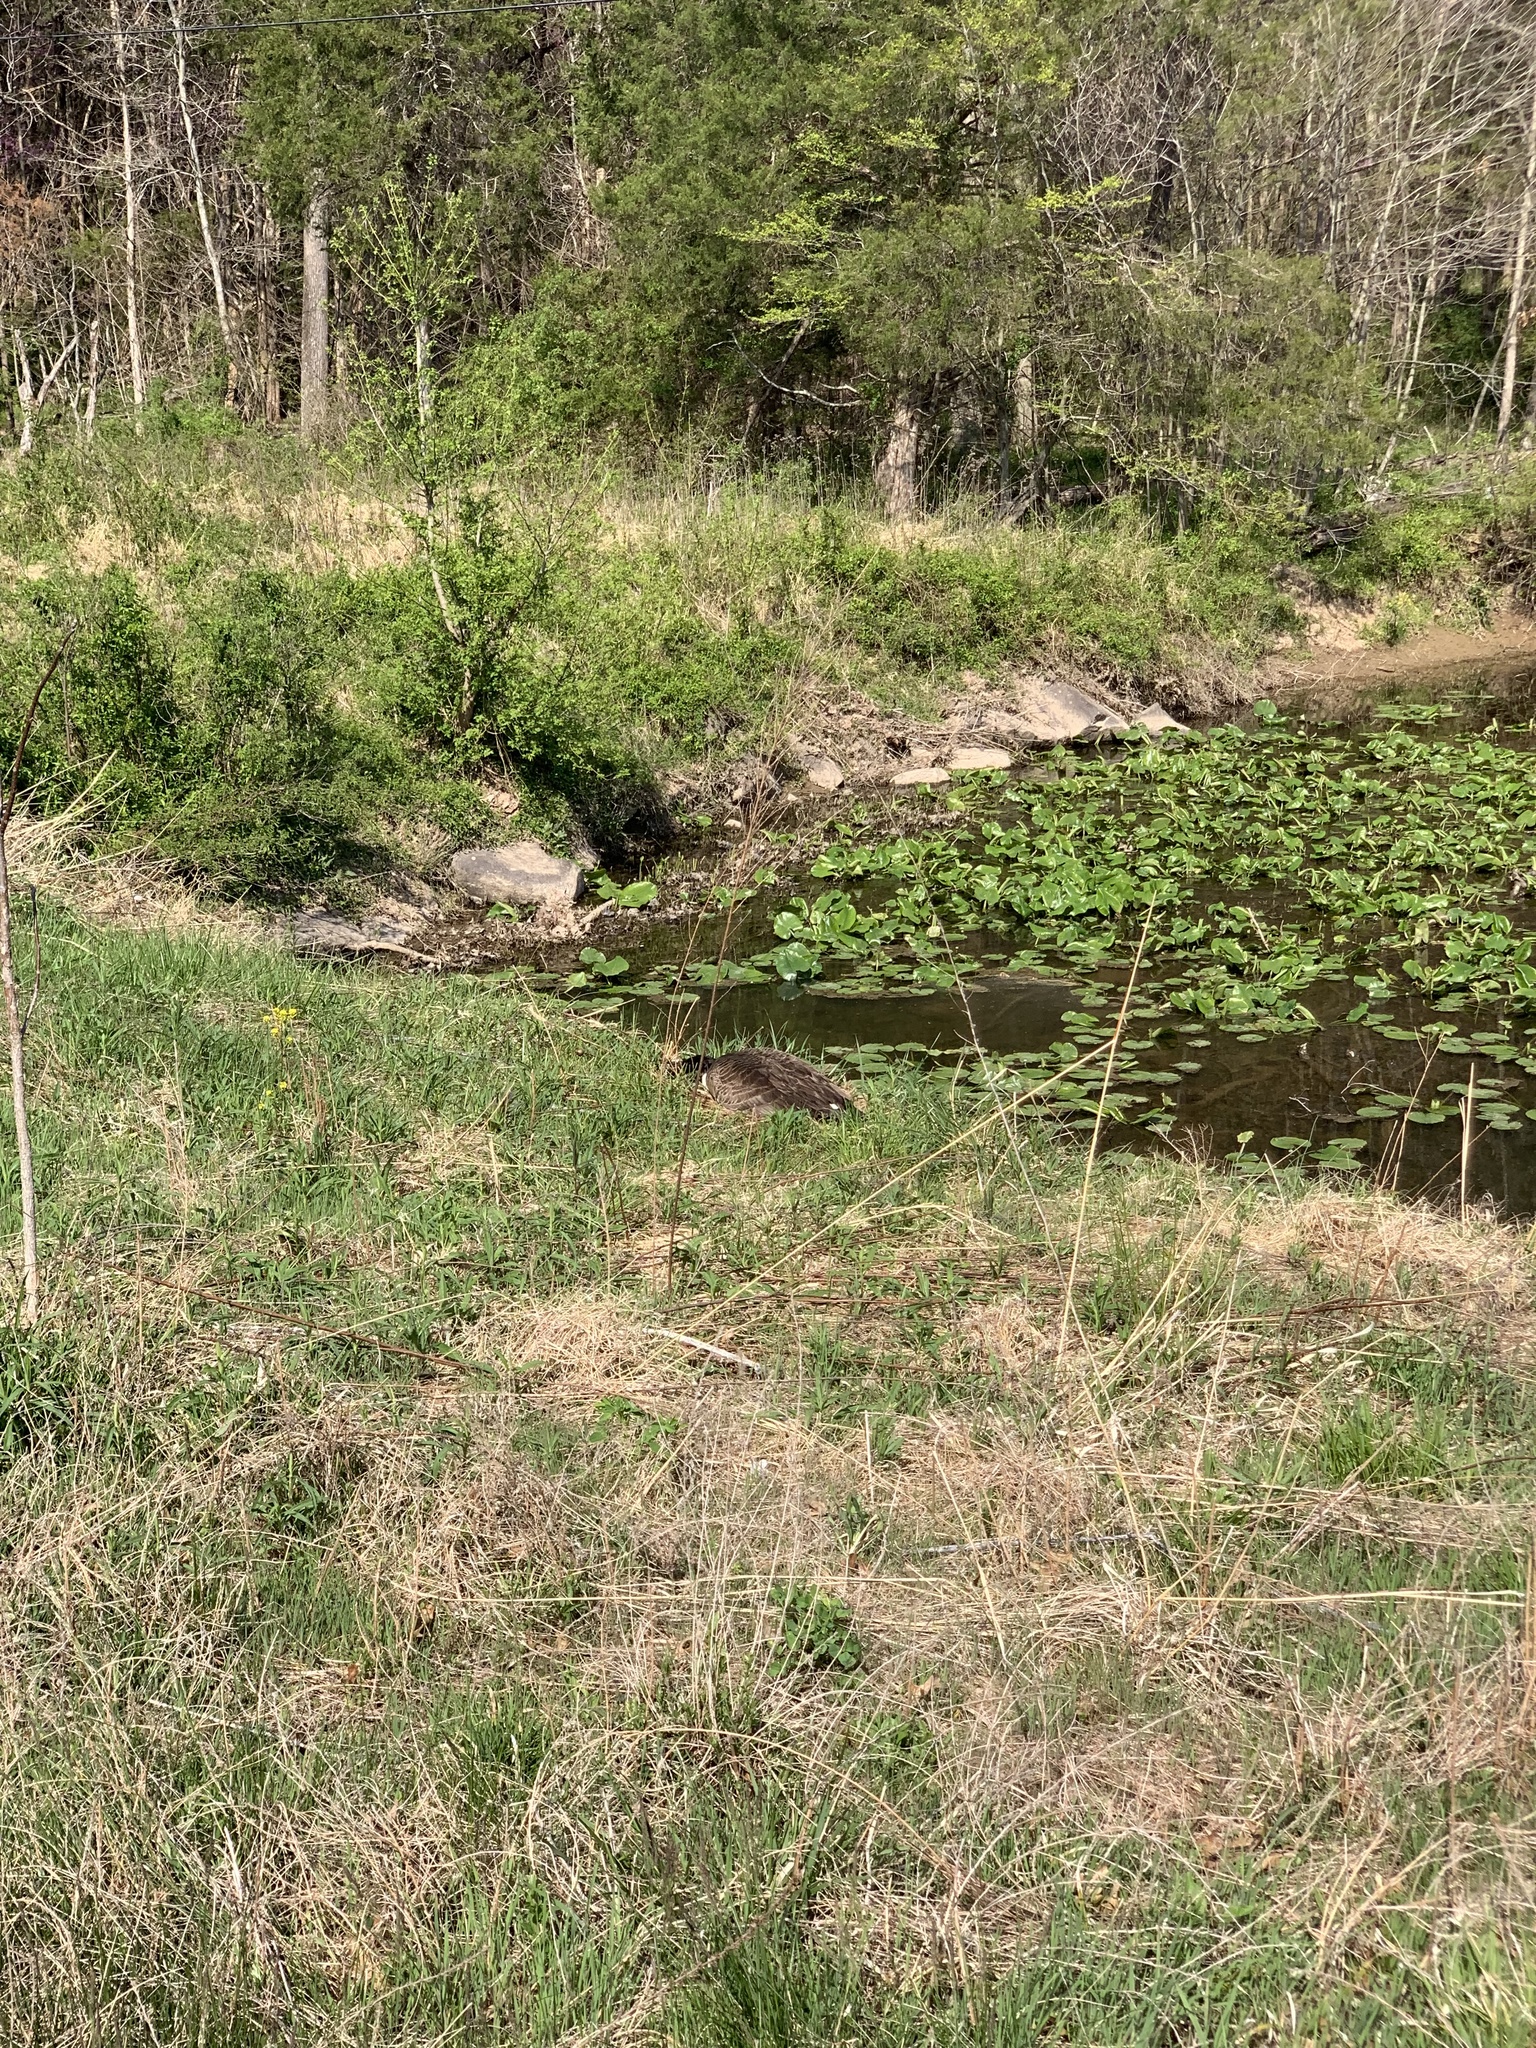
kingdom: Animalia
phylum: Chordata
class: Aves
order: Anseriformes
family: Anatidae
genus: Branta
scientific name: Branta canadensis
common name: Canada goose
